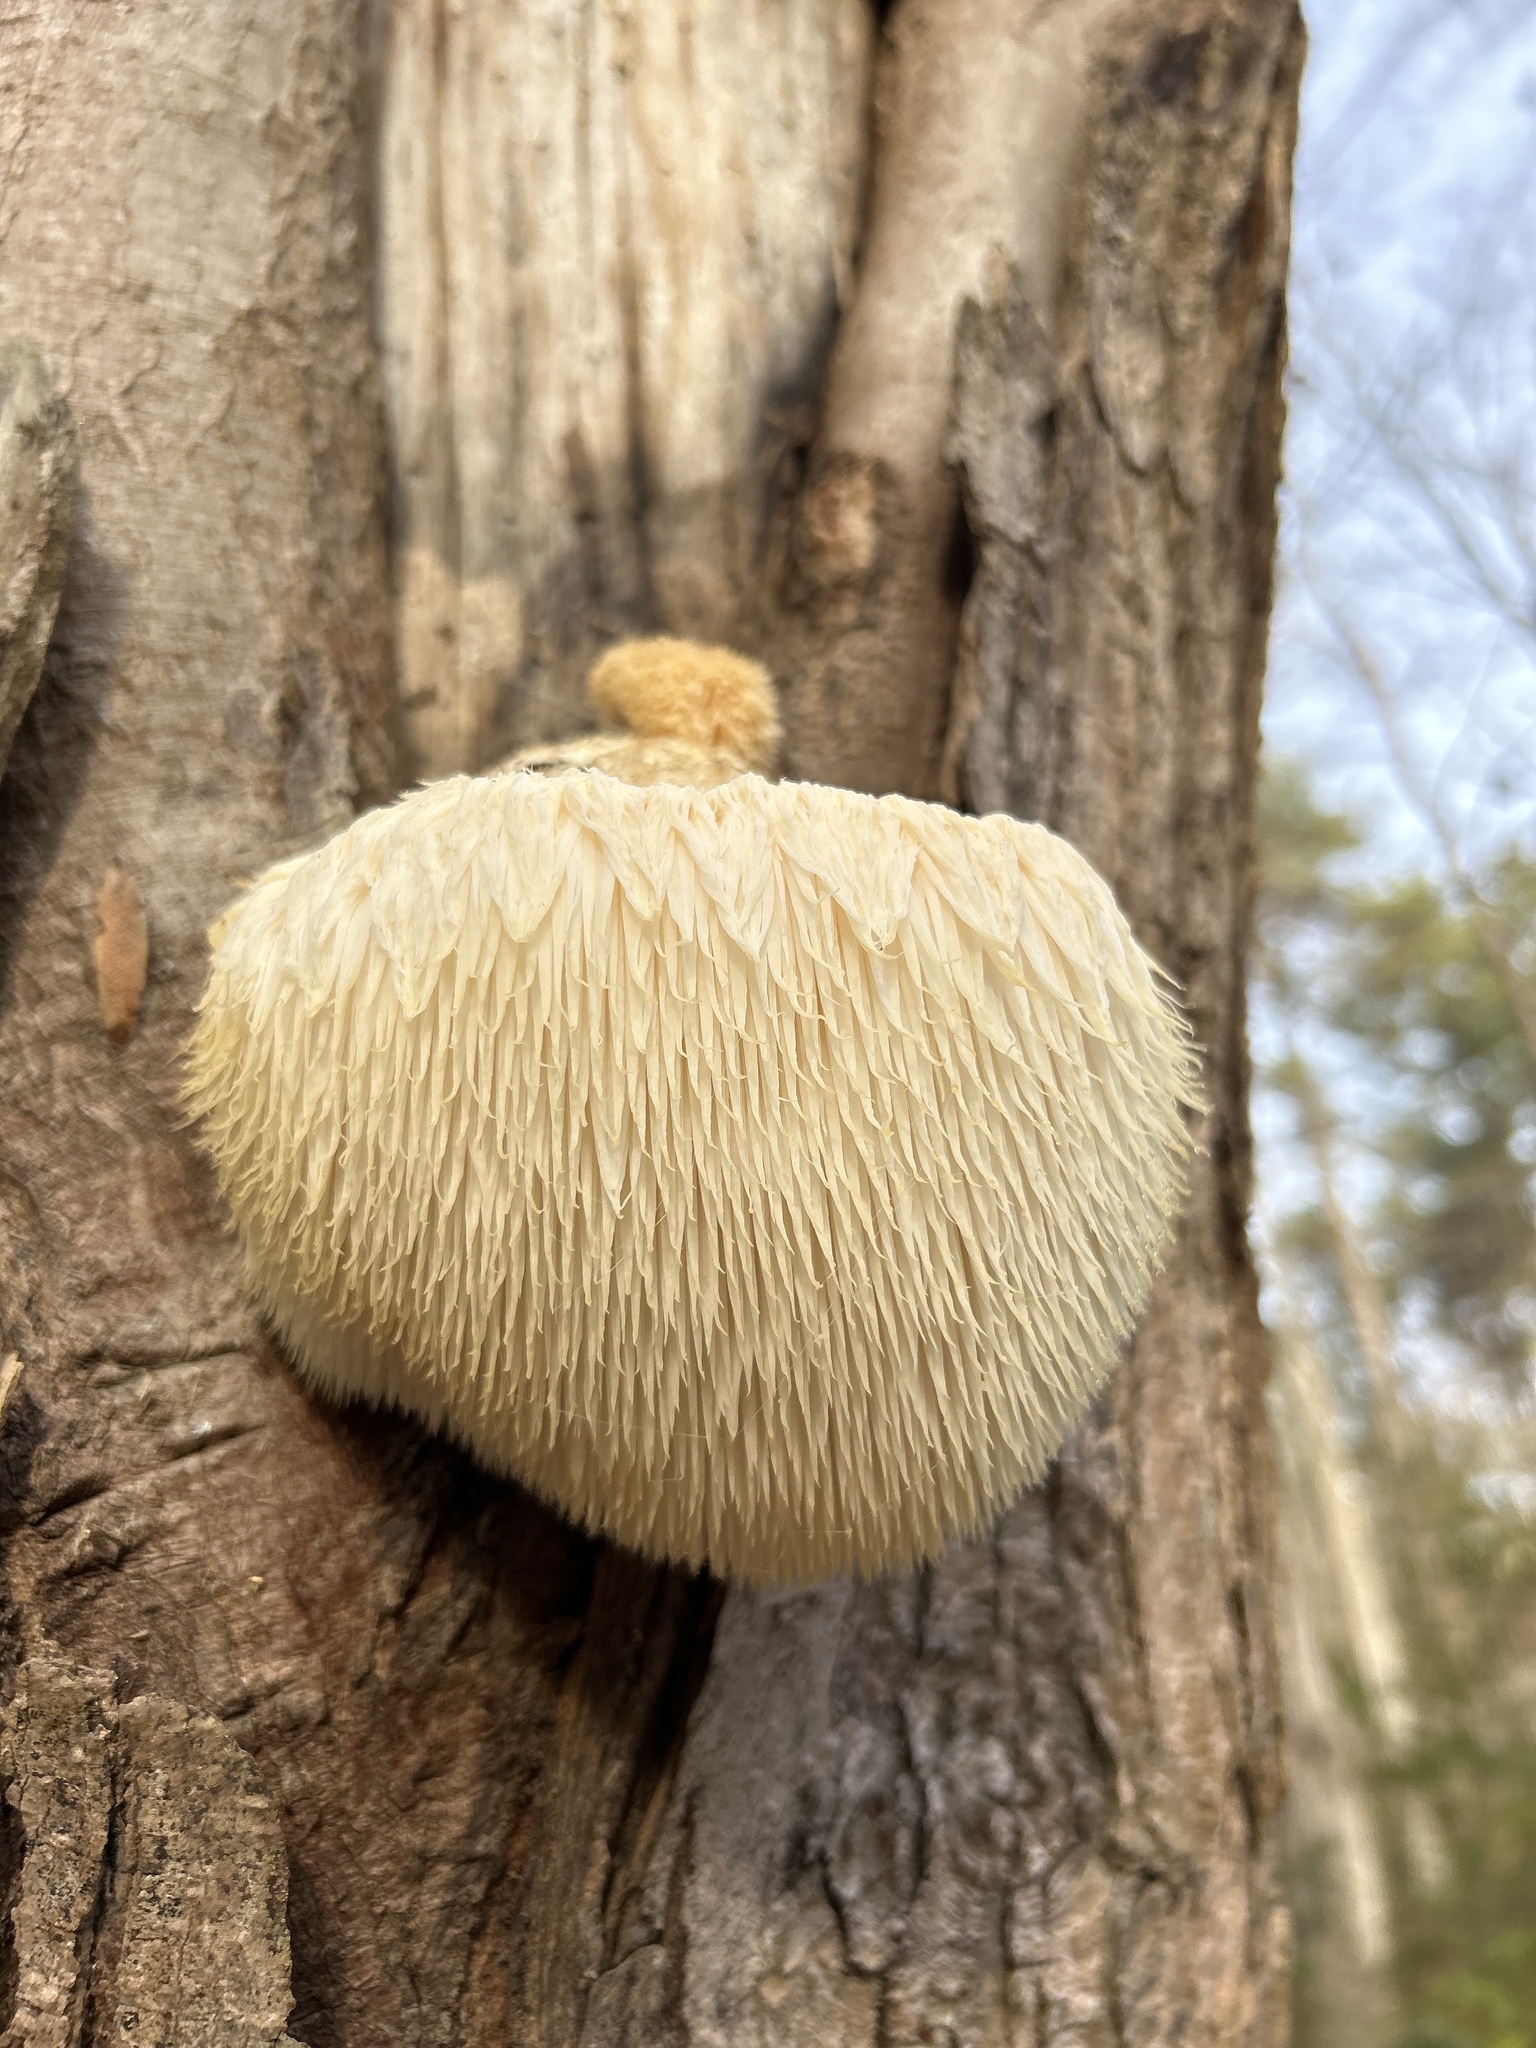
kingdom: Fungi
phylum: Basidiomycota
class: Agaricomycetes
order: Russulales
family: Hericiaceae
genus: Hericium
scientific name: Hericium erinaceus
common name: Bearded tooth
